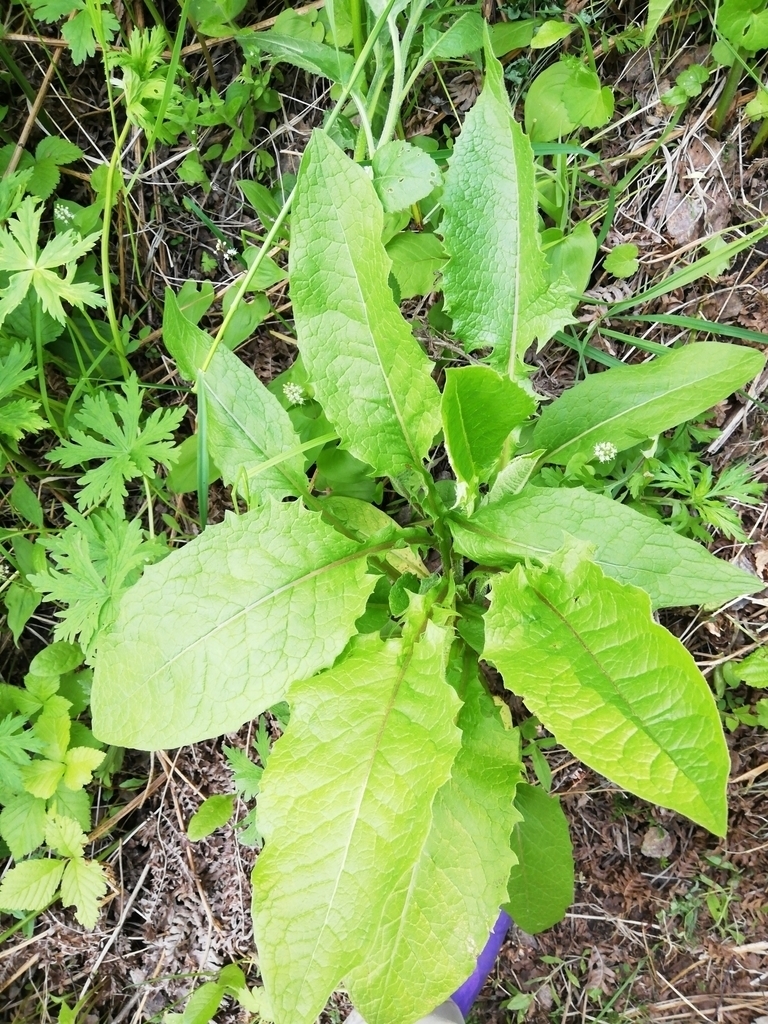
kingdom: Plantae
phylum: Tracheophyta
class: Magnoliopsida
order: Asterales
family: Asteraceae
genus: Crepis
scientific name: Crepis sibirica
